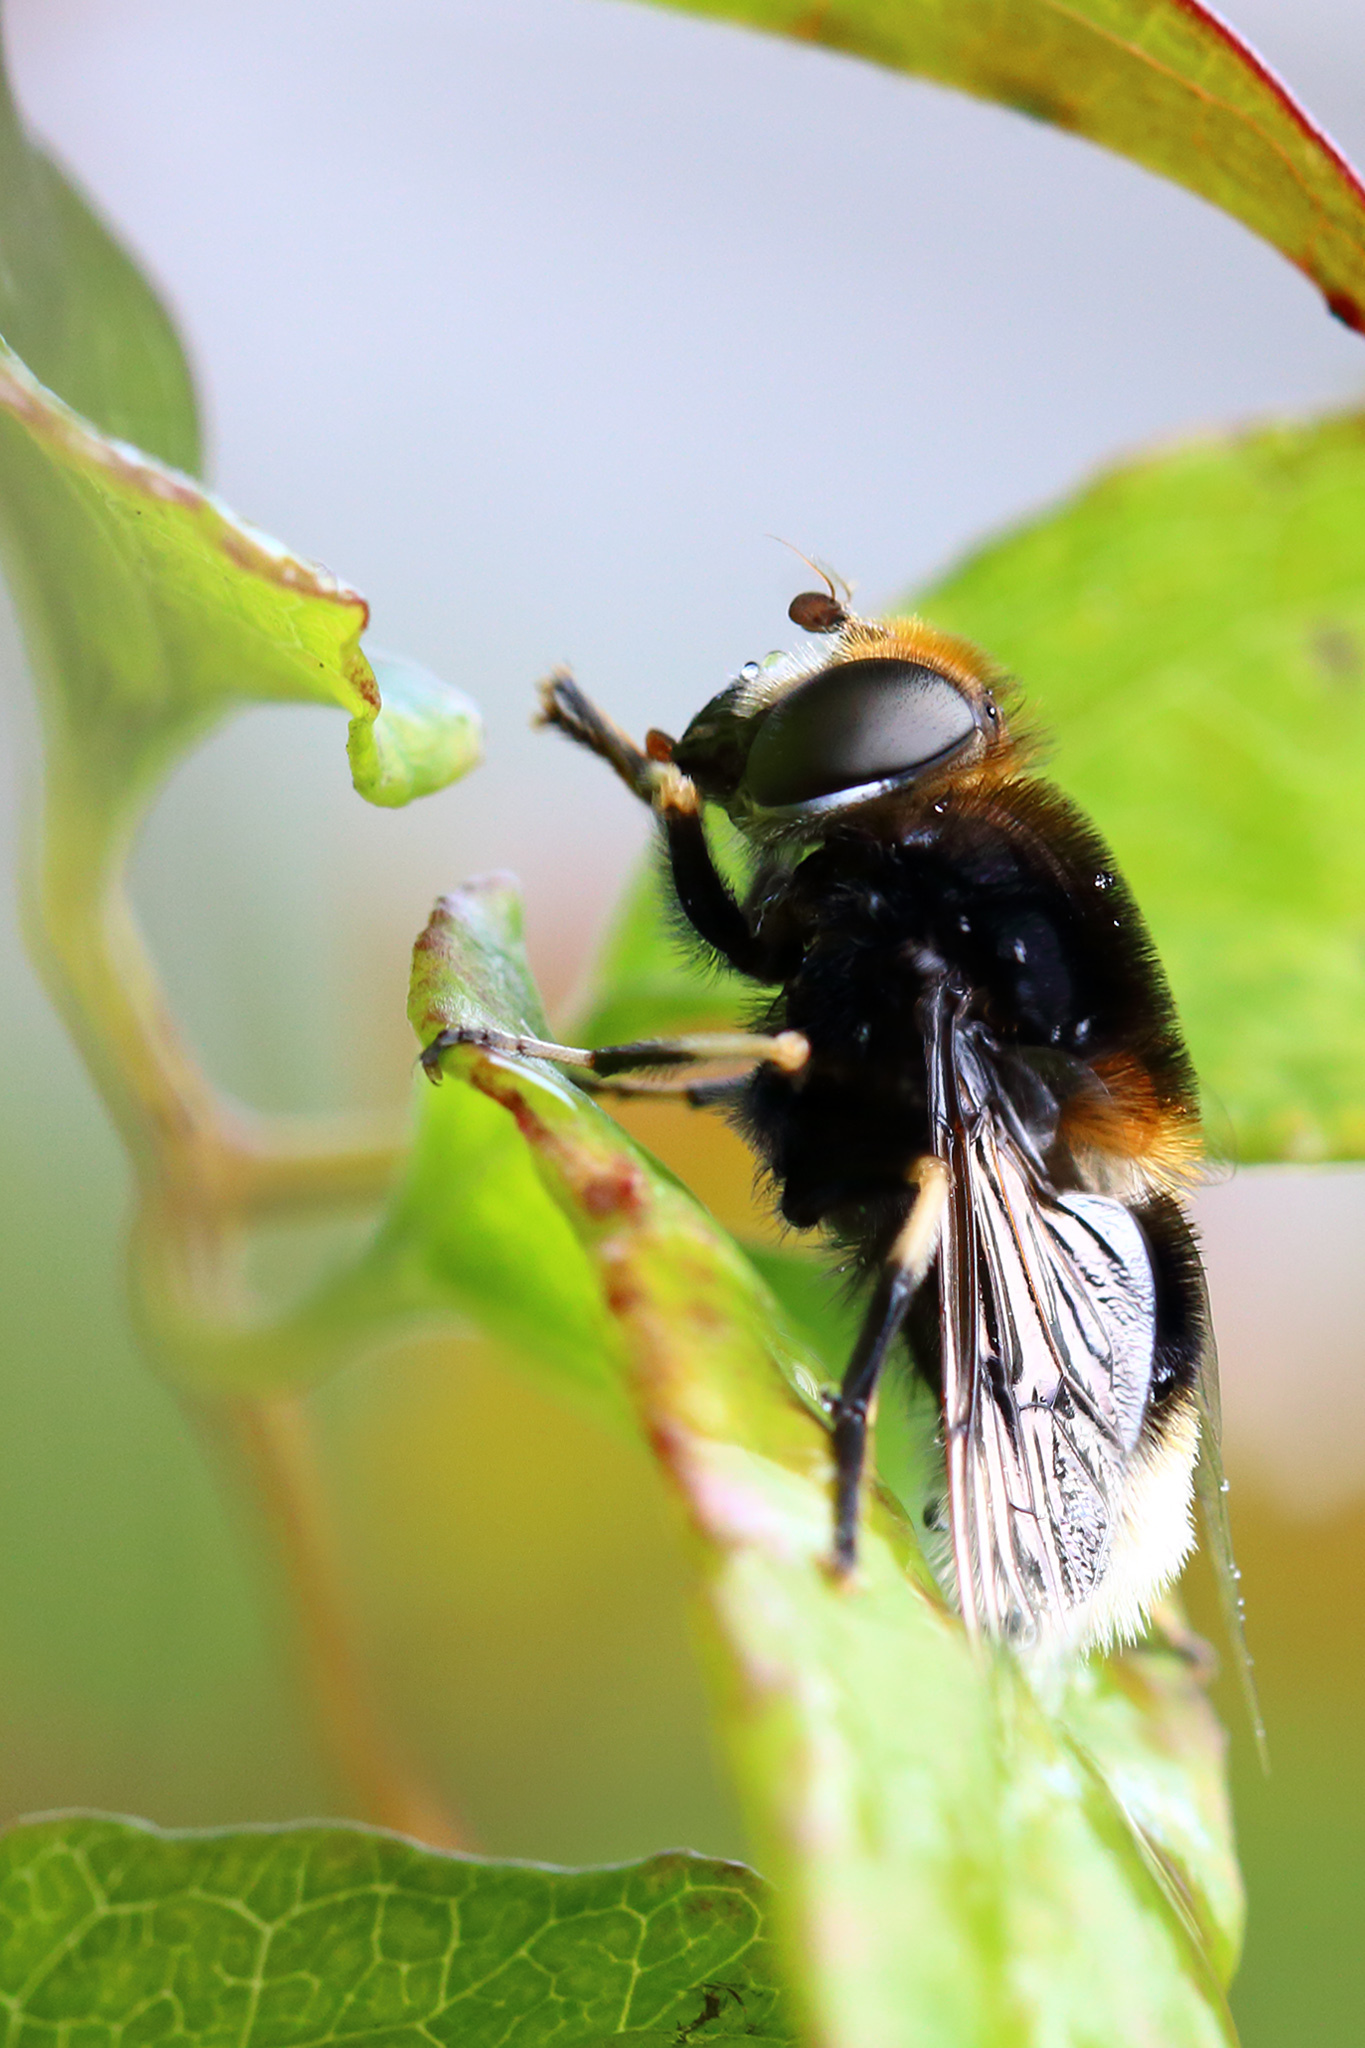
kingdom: Animalia
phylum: Arthropoda
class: Insecta
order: Diptera
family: Syrphidae
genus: Eristalis
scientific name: Eristalis intricaria
